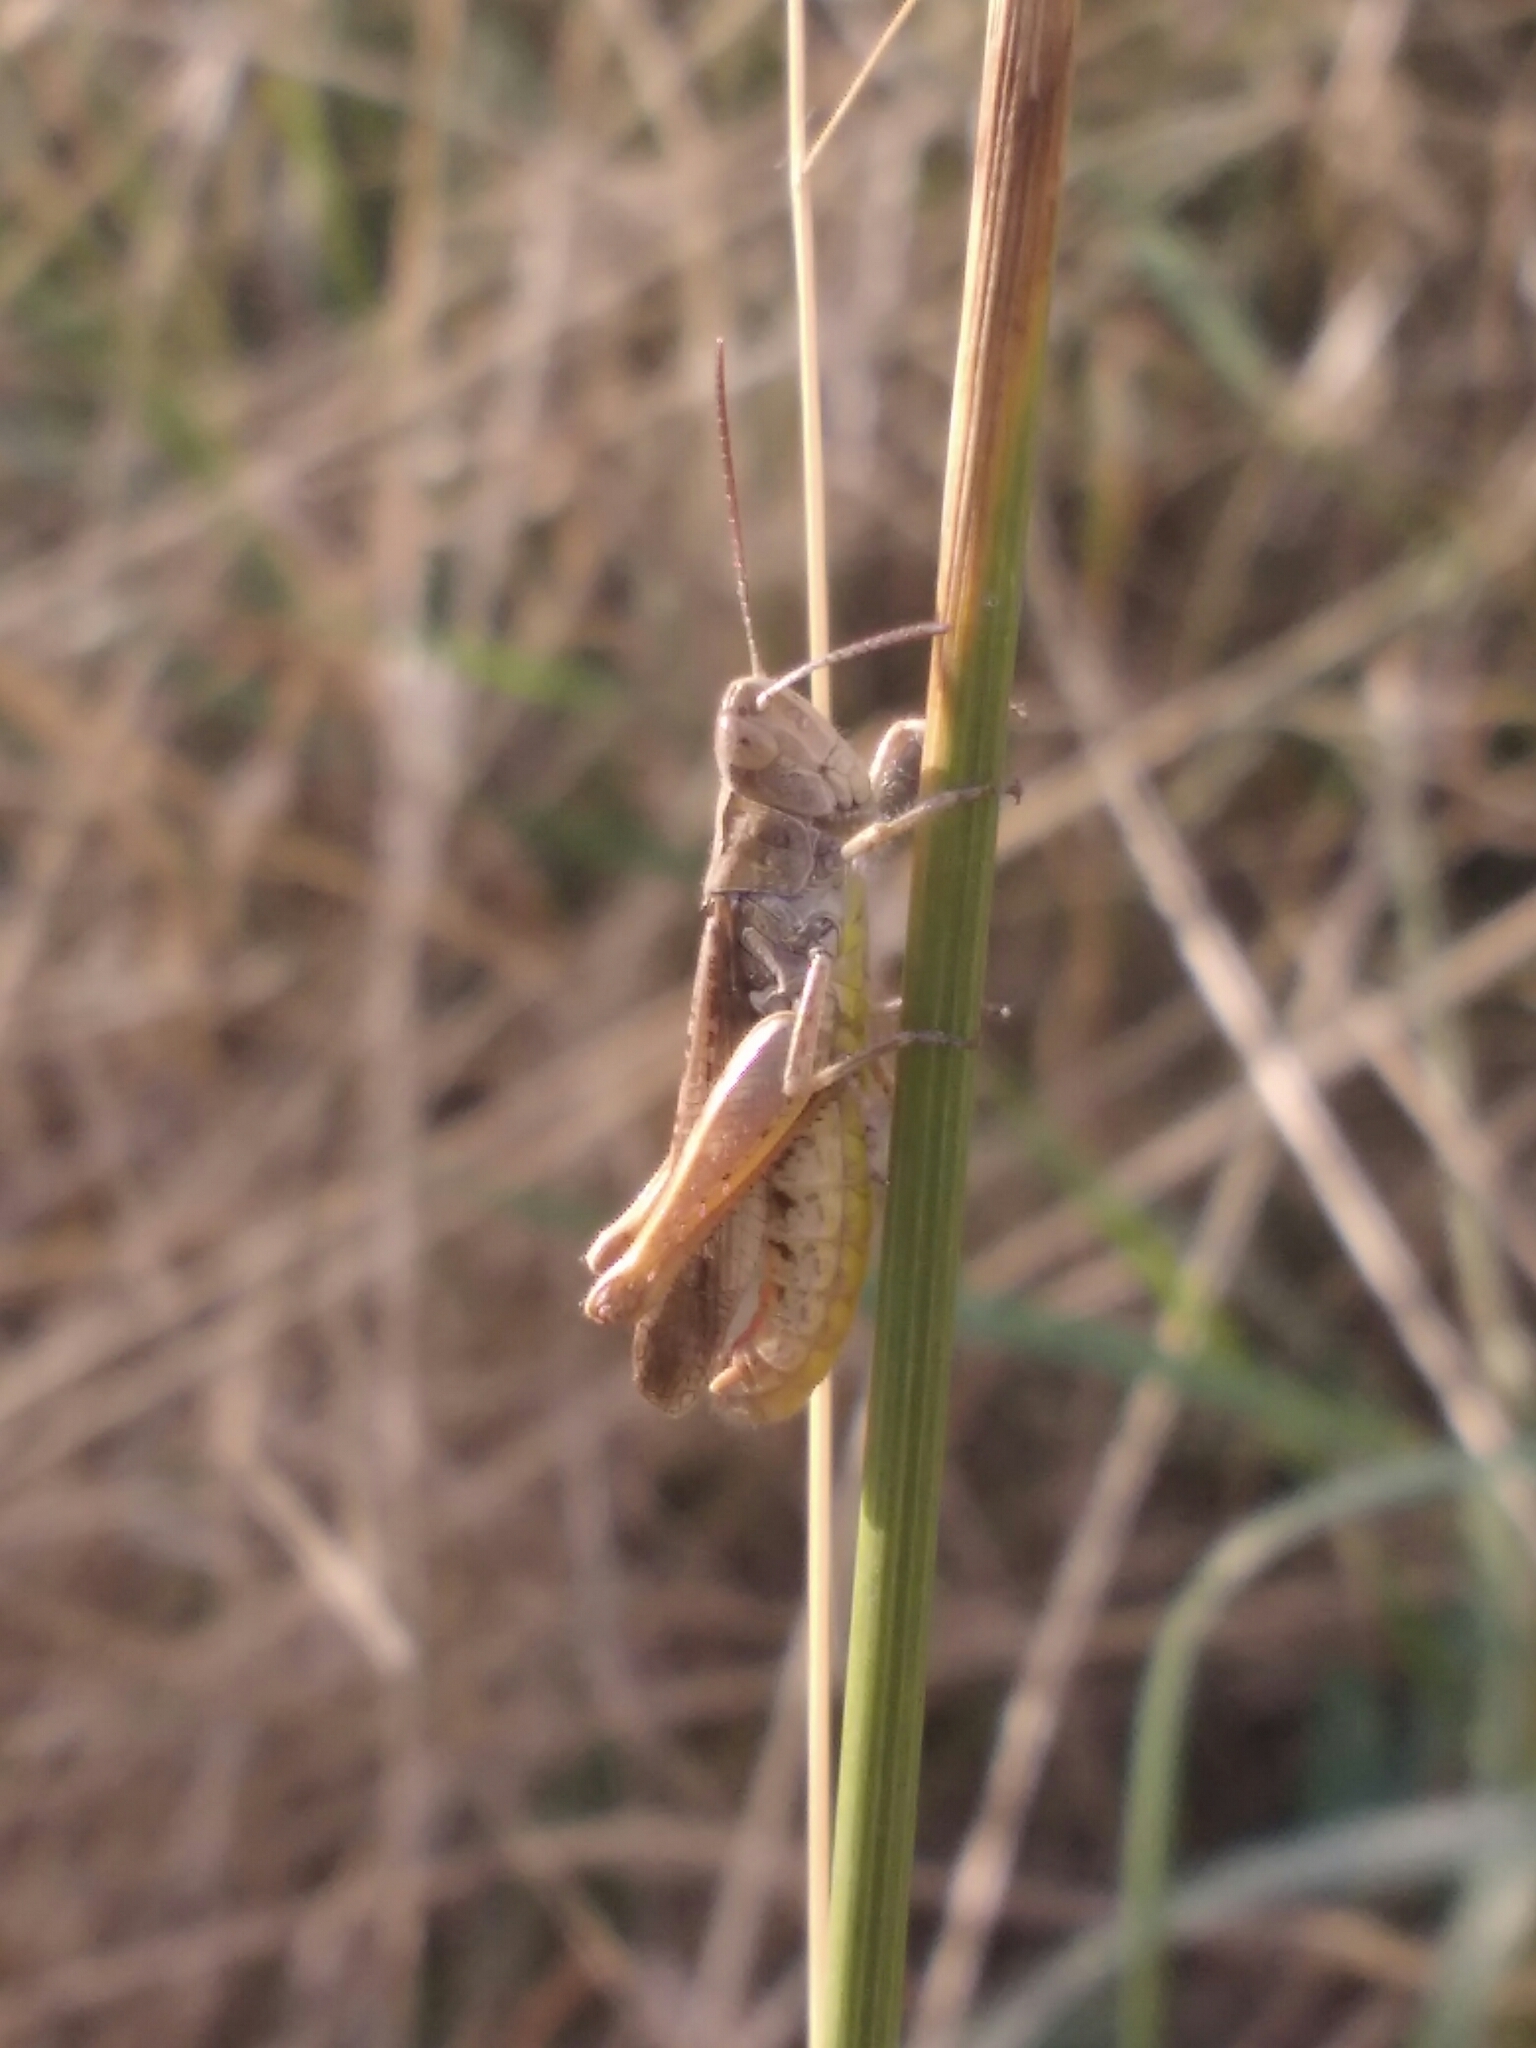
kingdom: Animalia
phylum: Arthropoda
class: Insecta
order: Orthoptera
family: Acrididae
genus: Chorthippus
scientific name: Chorthippus biguttulus
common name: Bow-winged grasshopper
